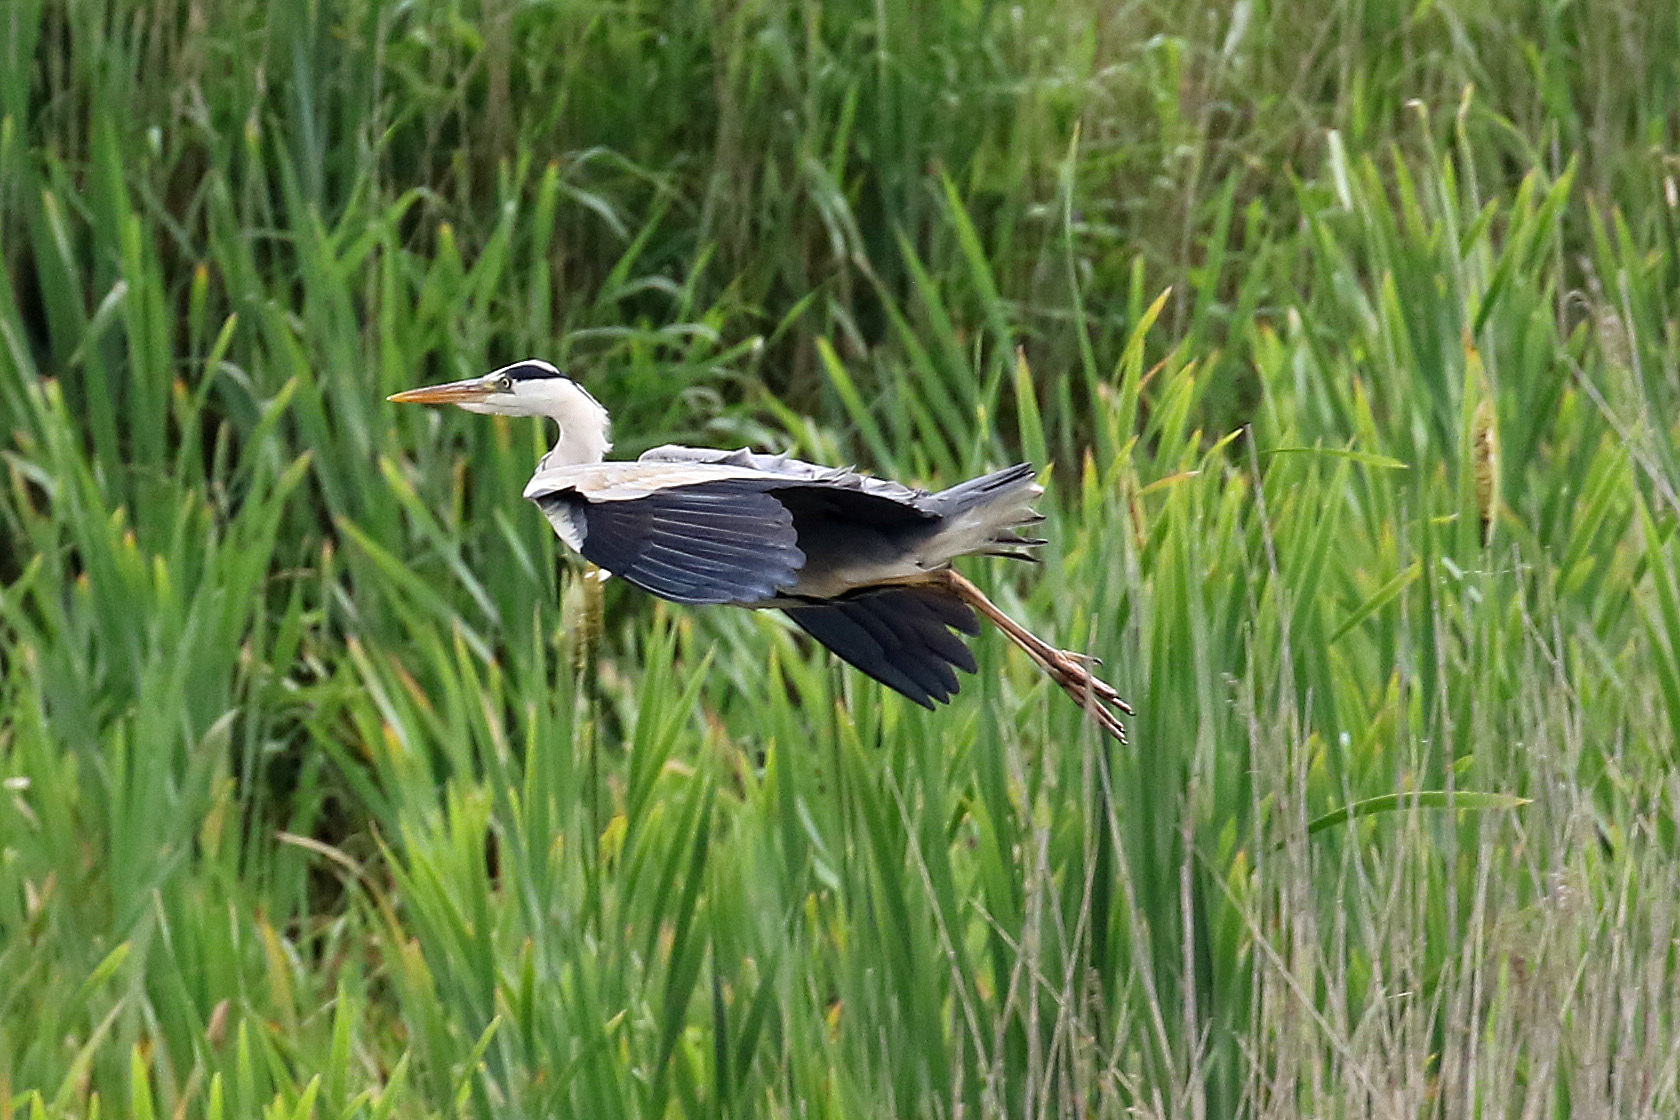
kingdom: Animalia
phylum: Chordata
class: Aves
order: Pelecaniformes
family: Ardeidae
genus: Ardea
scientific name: Ardea cinerea
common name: Grey heron
